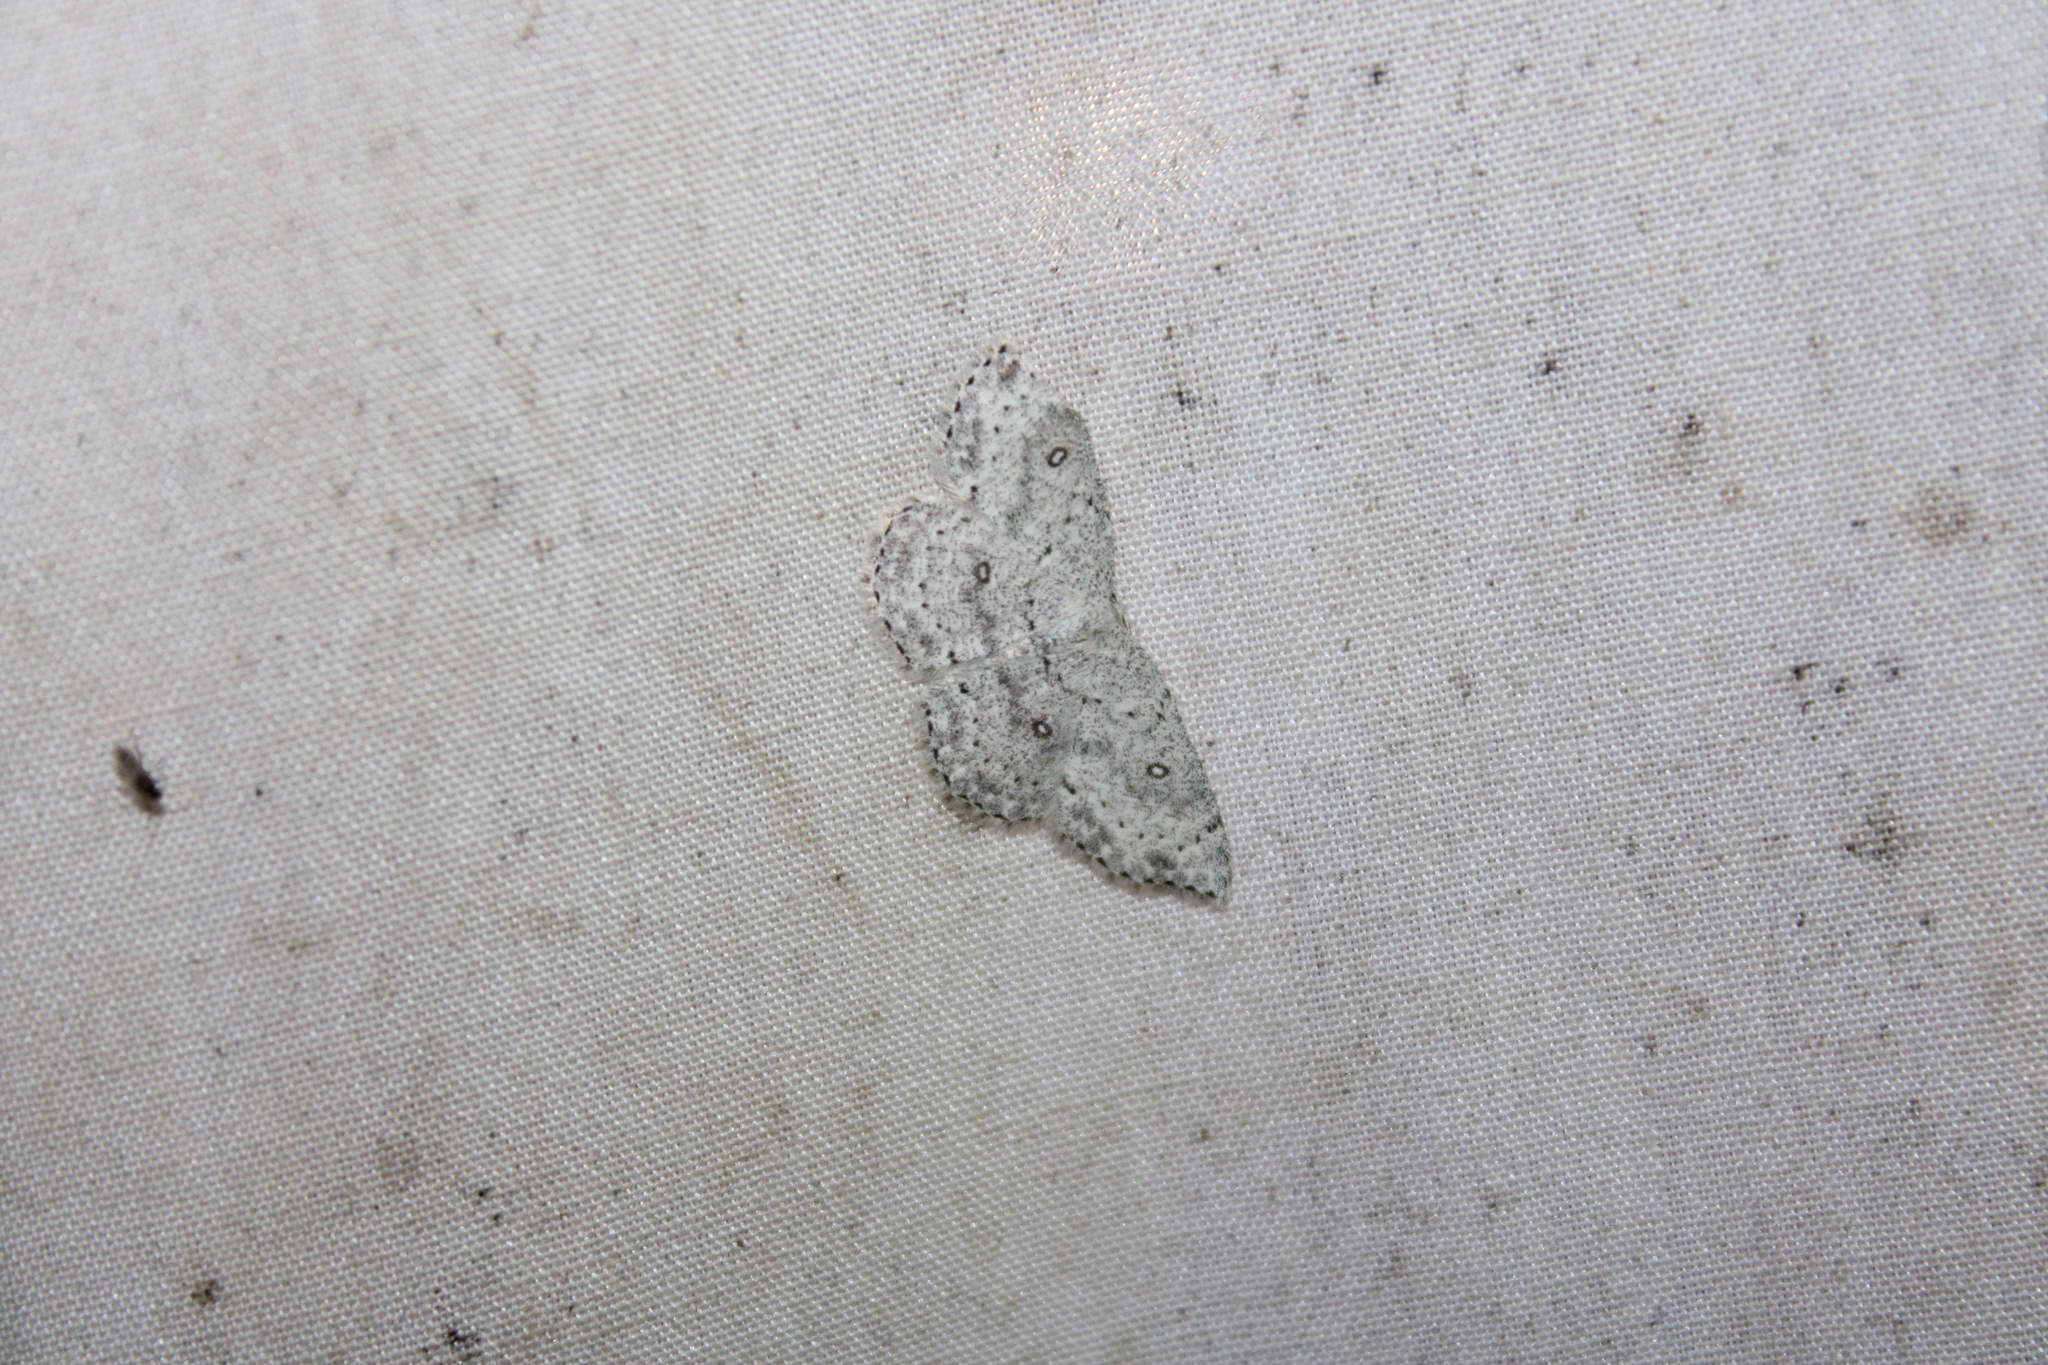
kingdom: Animalia
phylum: Arthropoda
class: Insecta
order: Lepidoptera
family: Geometridae
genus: Cyclophora
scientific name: Cyclophora pendulinaria
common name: Sweet fern geometer
